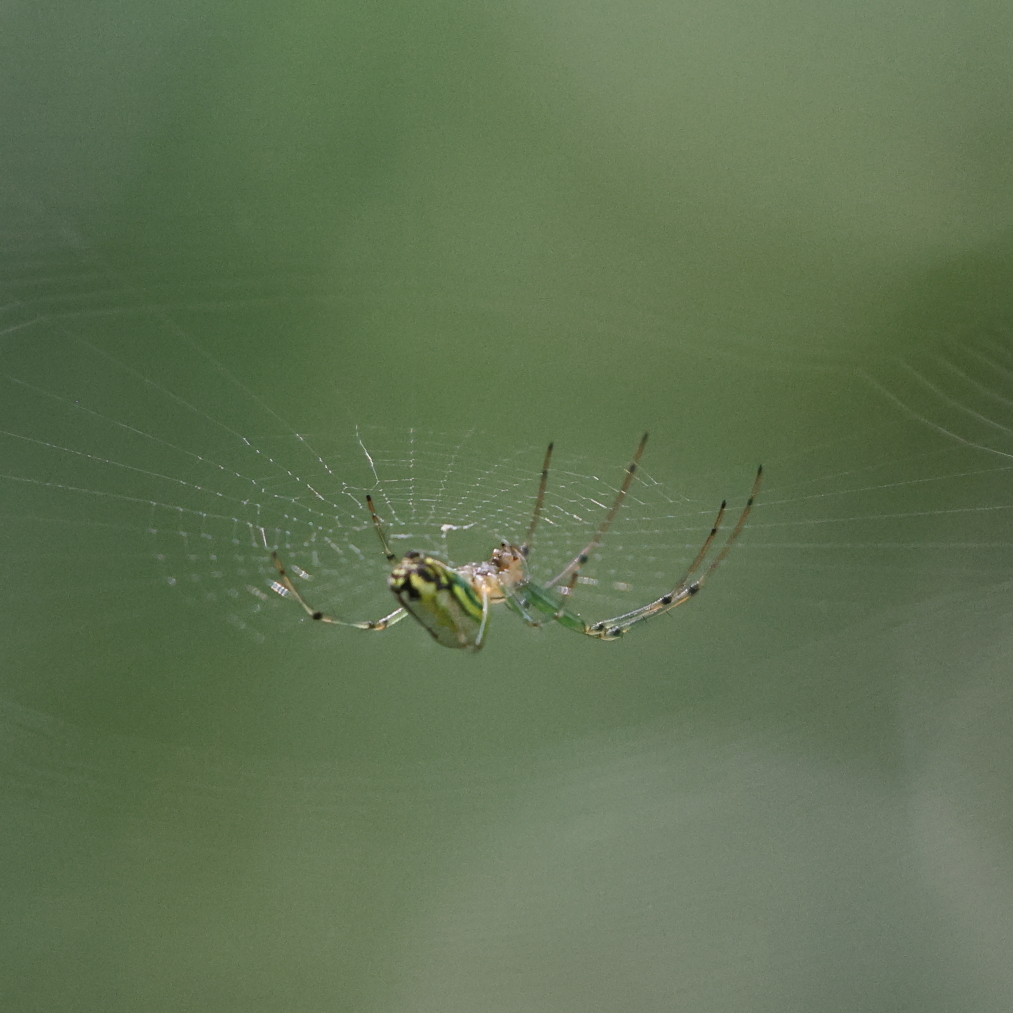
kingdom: Animalia
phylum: Arthropoda
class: Arachnida
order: Araneae
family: Tetragnathidae
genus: Leucauge
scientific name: Leucauge venusta
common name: Longjawed orb weavers
